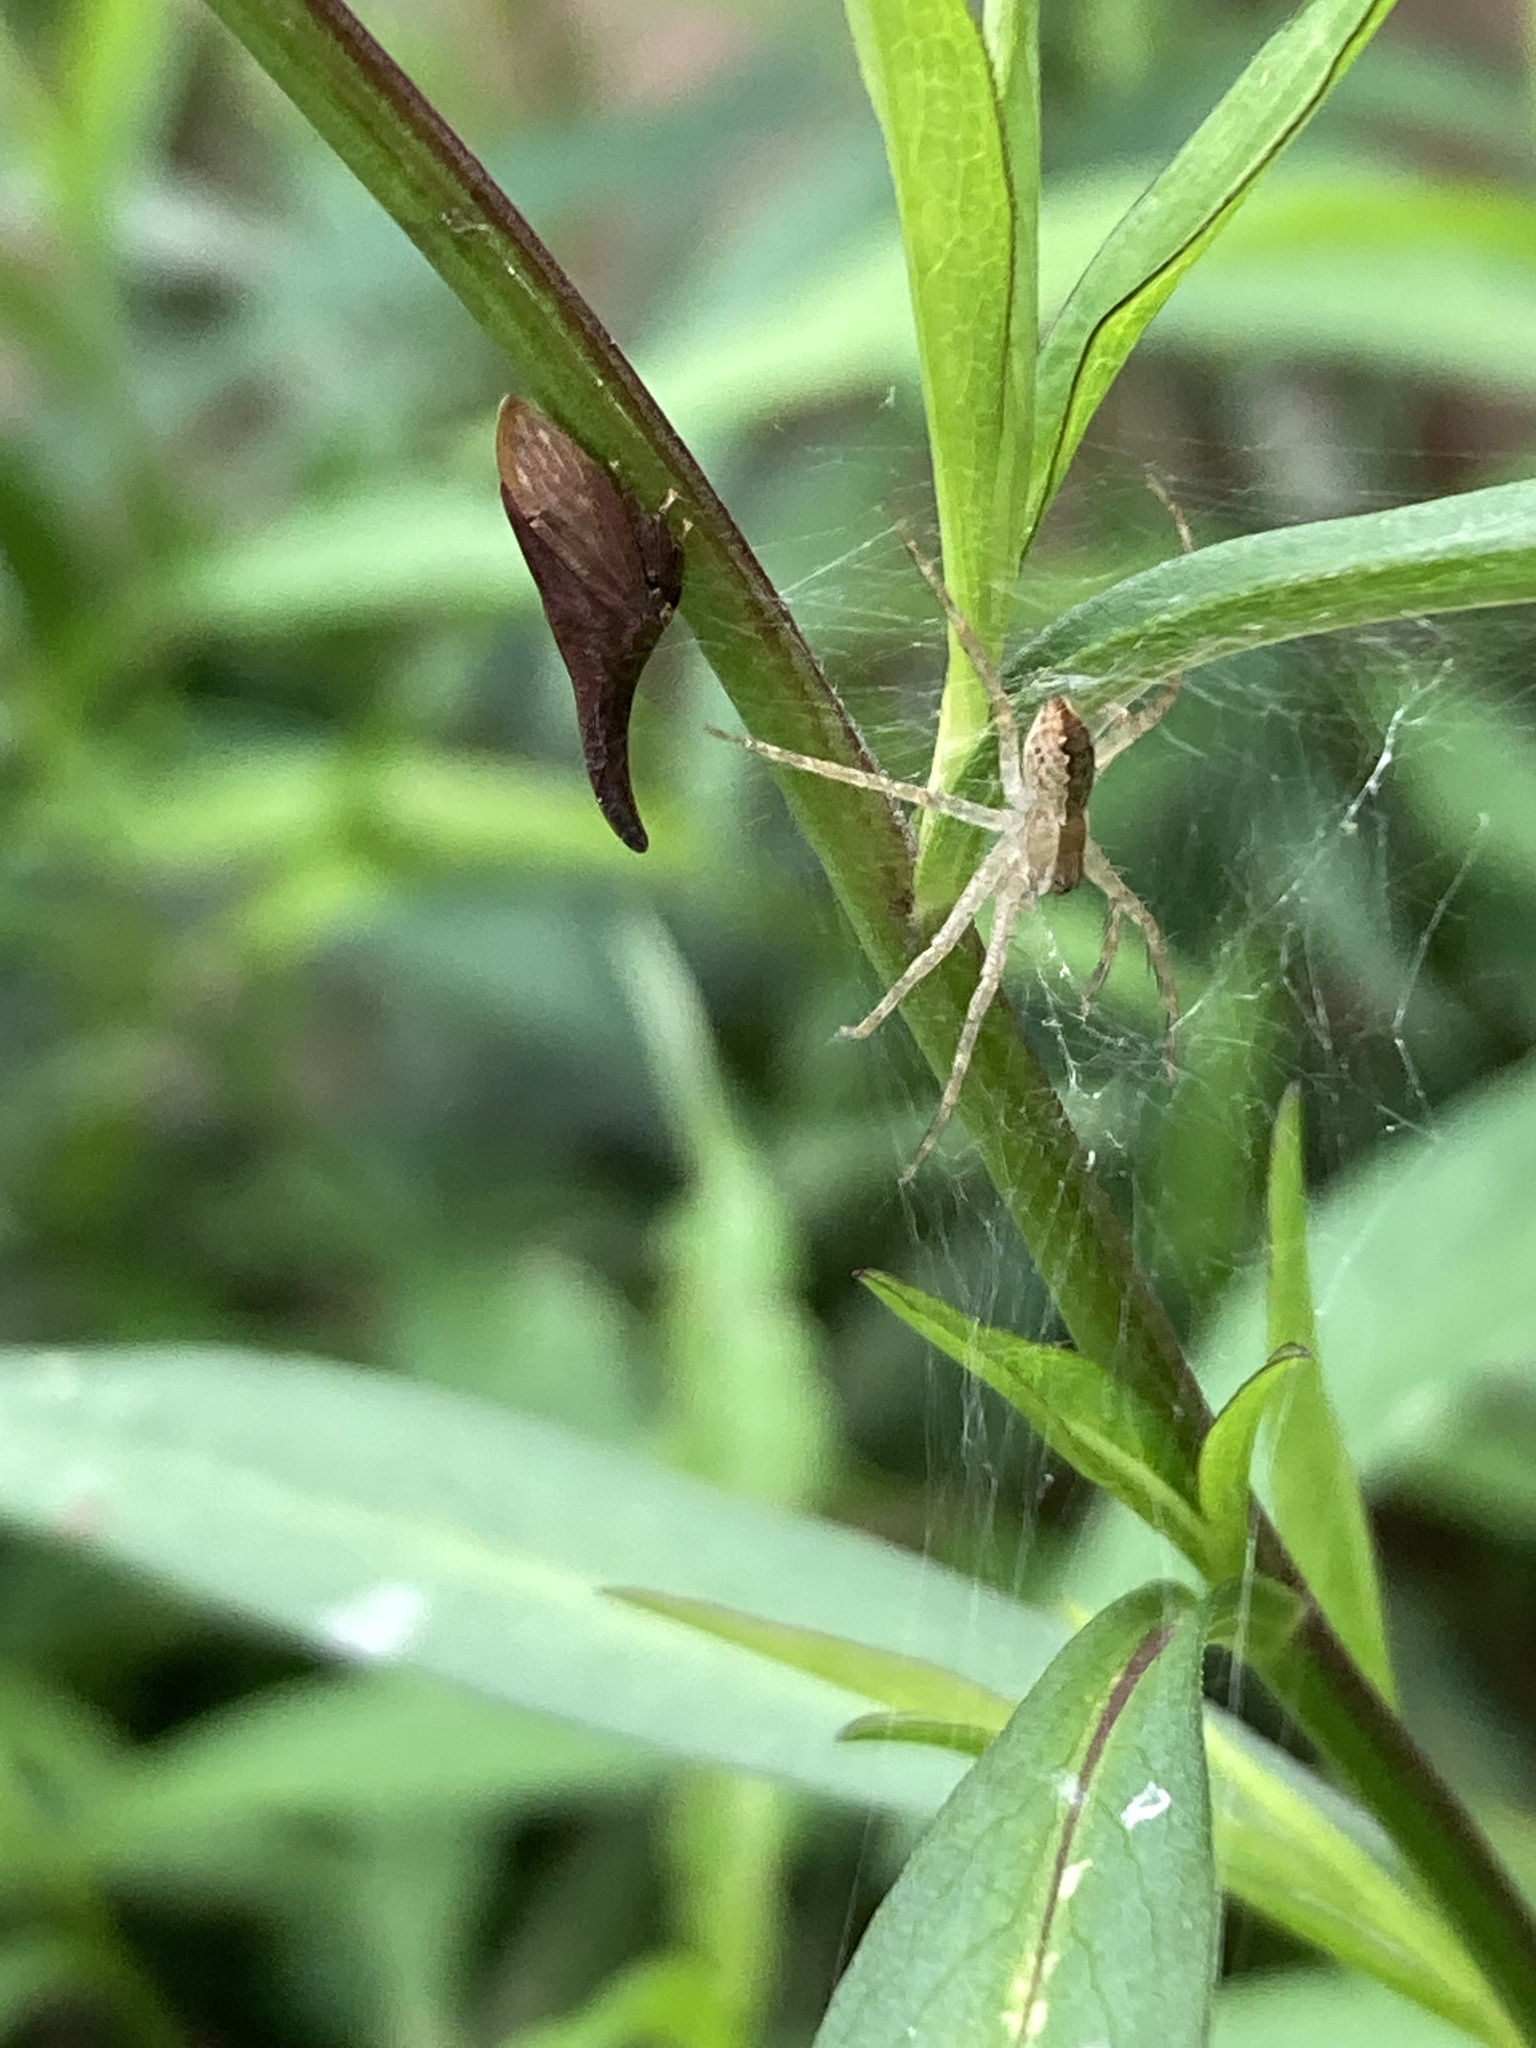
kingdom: Animalia
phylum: Arthropoda
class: Insecta
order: Hemiptera
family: Membracidae
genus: Enchenopa
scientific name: Enchenopa latipes
